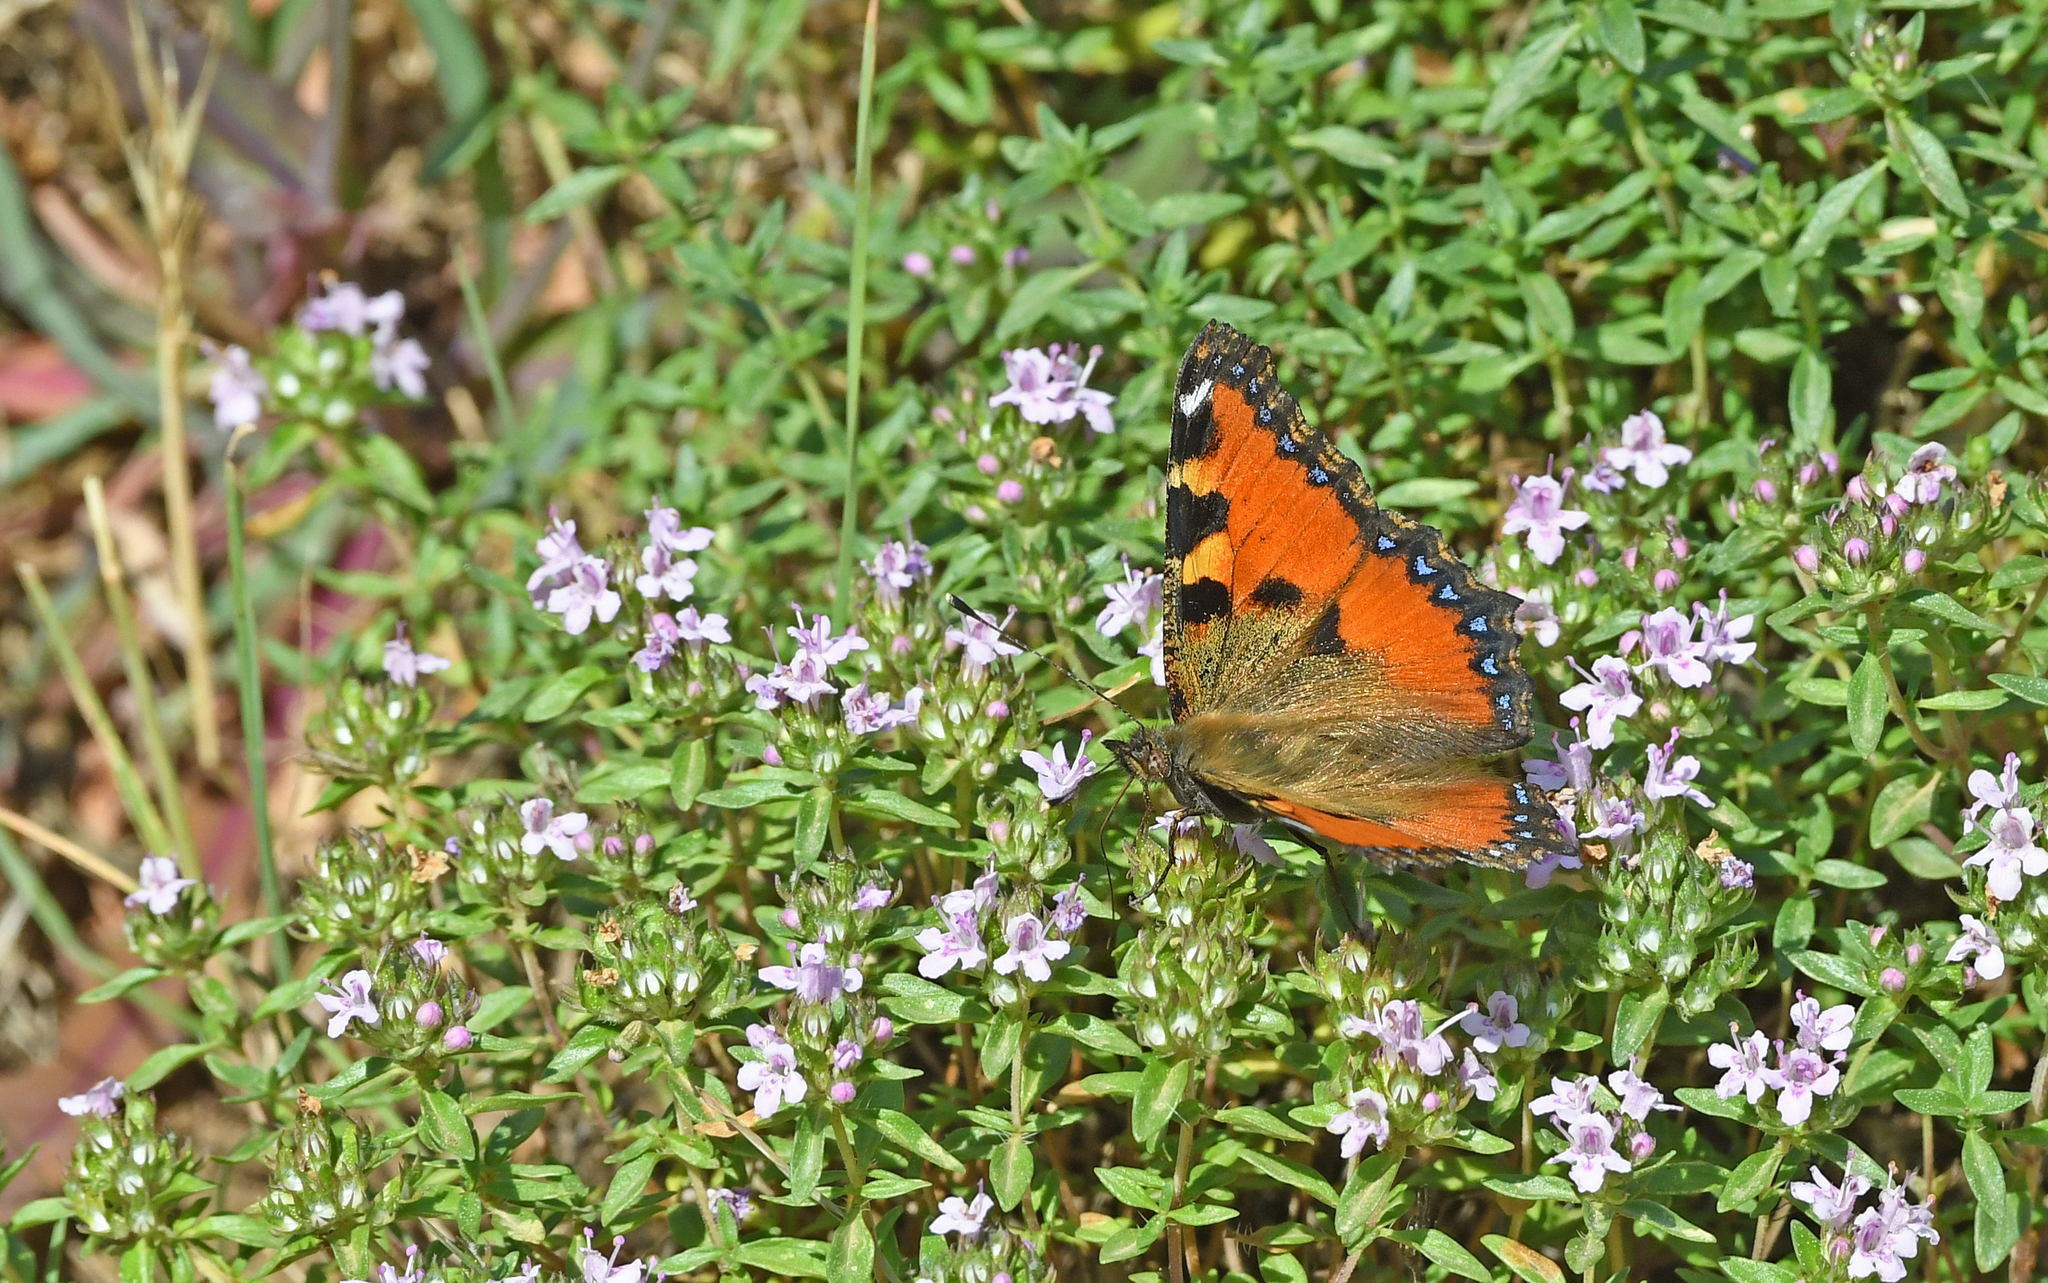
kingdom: Animalia
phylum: Arthropoda
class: Insecta
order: Lepidoptera
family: Nymphalidae
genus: Aglais
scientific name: Aglais ichnusa
